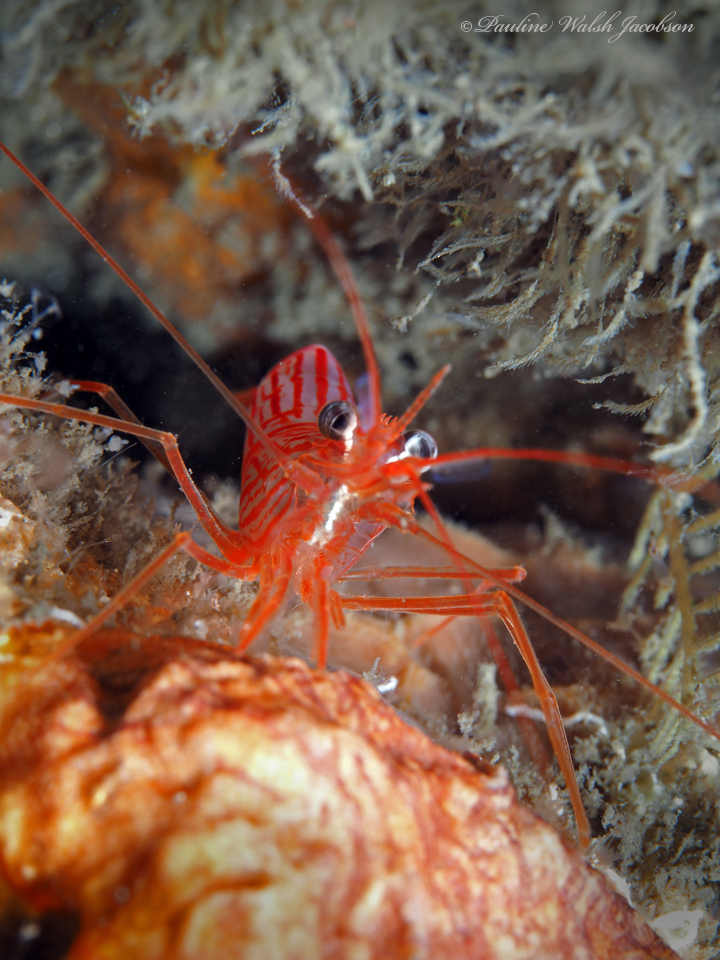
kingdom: Animalia
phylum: Arthropoda
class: Malacostraca
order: Decapoda
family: Lysmatidae
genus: Lysmata
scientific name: Lysmata rafa
